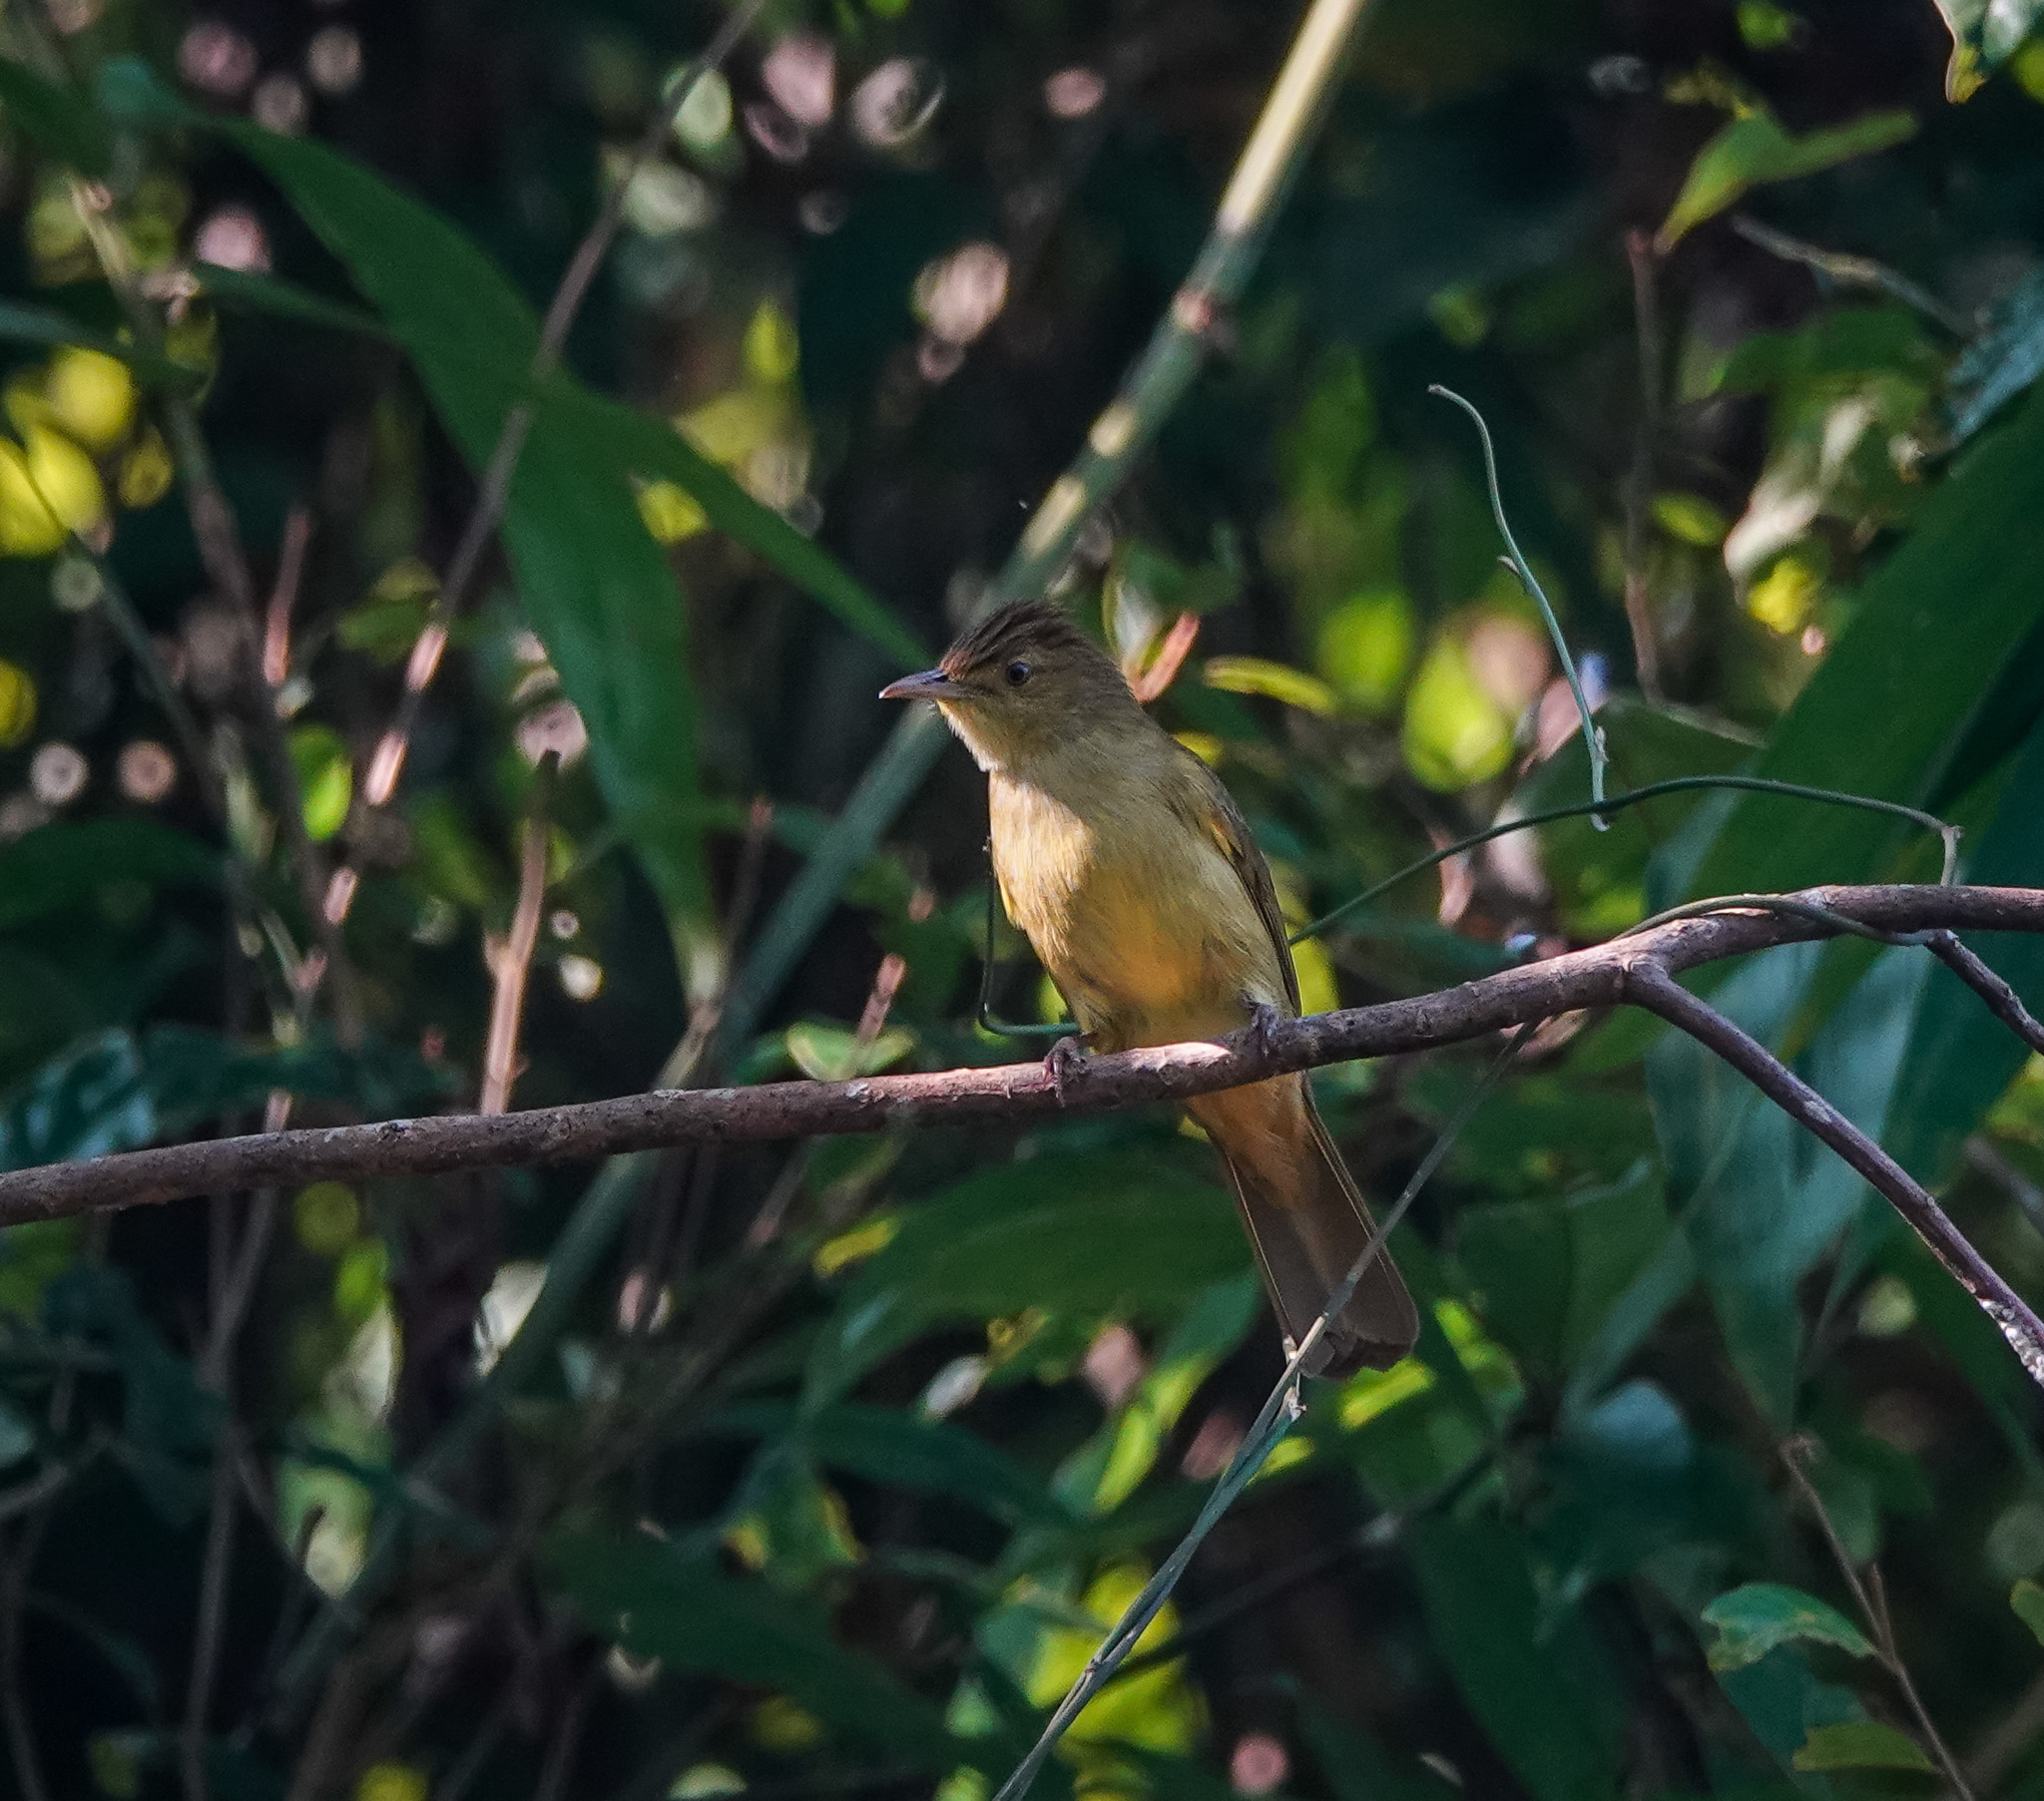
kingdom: Animalia
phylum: Chordata
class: Aves
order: Passeriformes
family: Pycnonotidae
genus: Iole
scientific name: Iole virescens
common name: Olive bulbul
